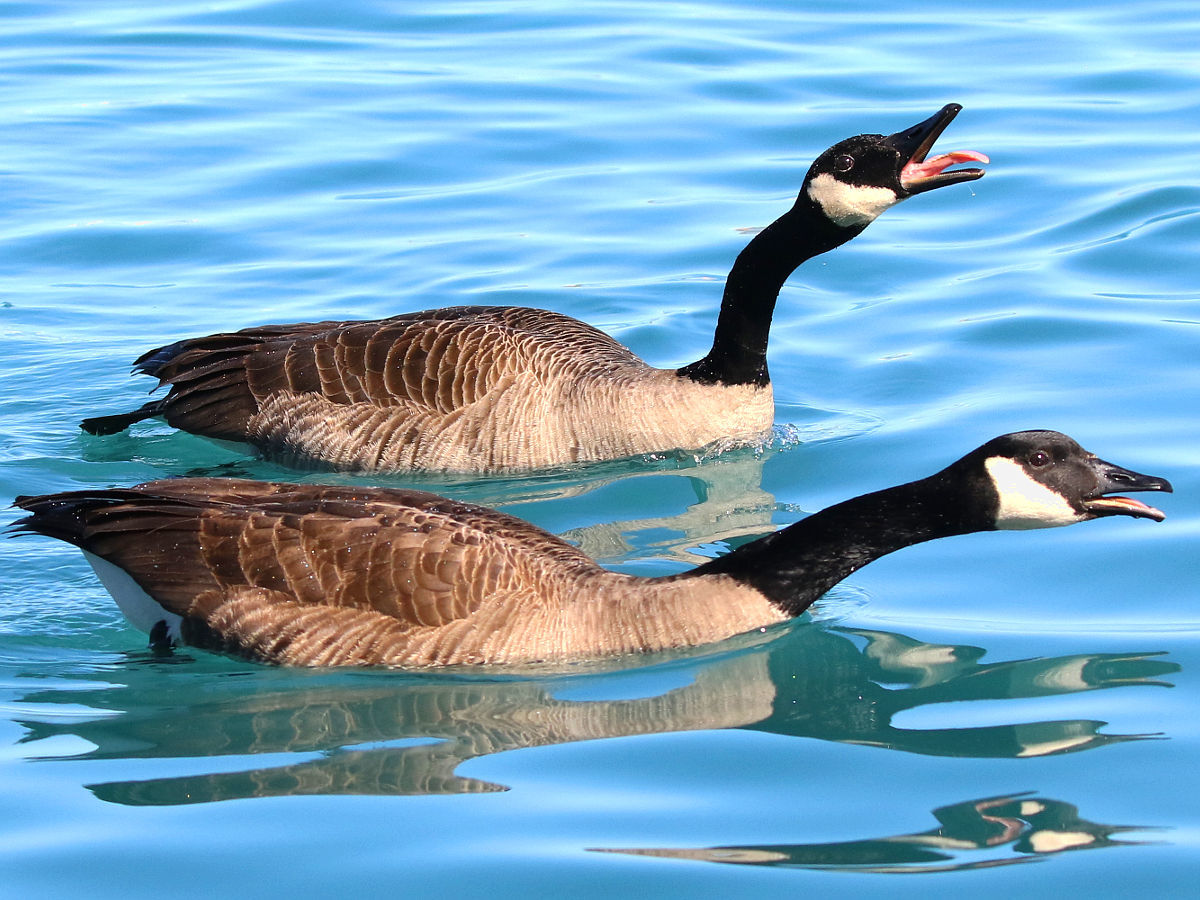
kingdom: Animalia
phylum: Chordata
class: Aves
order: Anseriformes
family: Anatidae
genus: Branta
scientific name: Branta canadensis
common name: Canada goose
